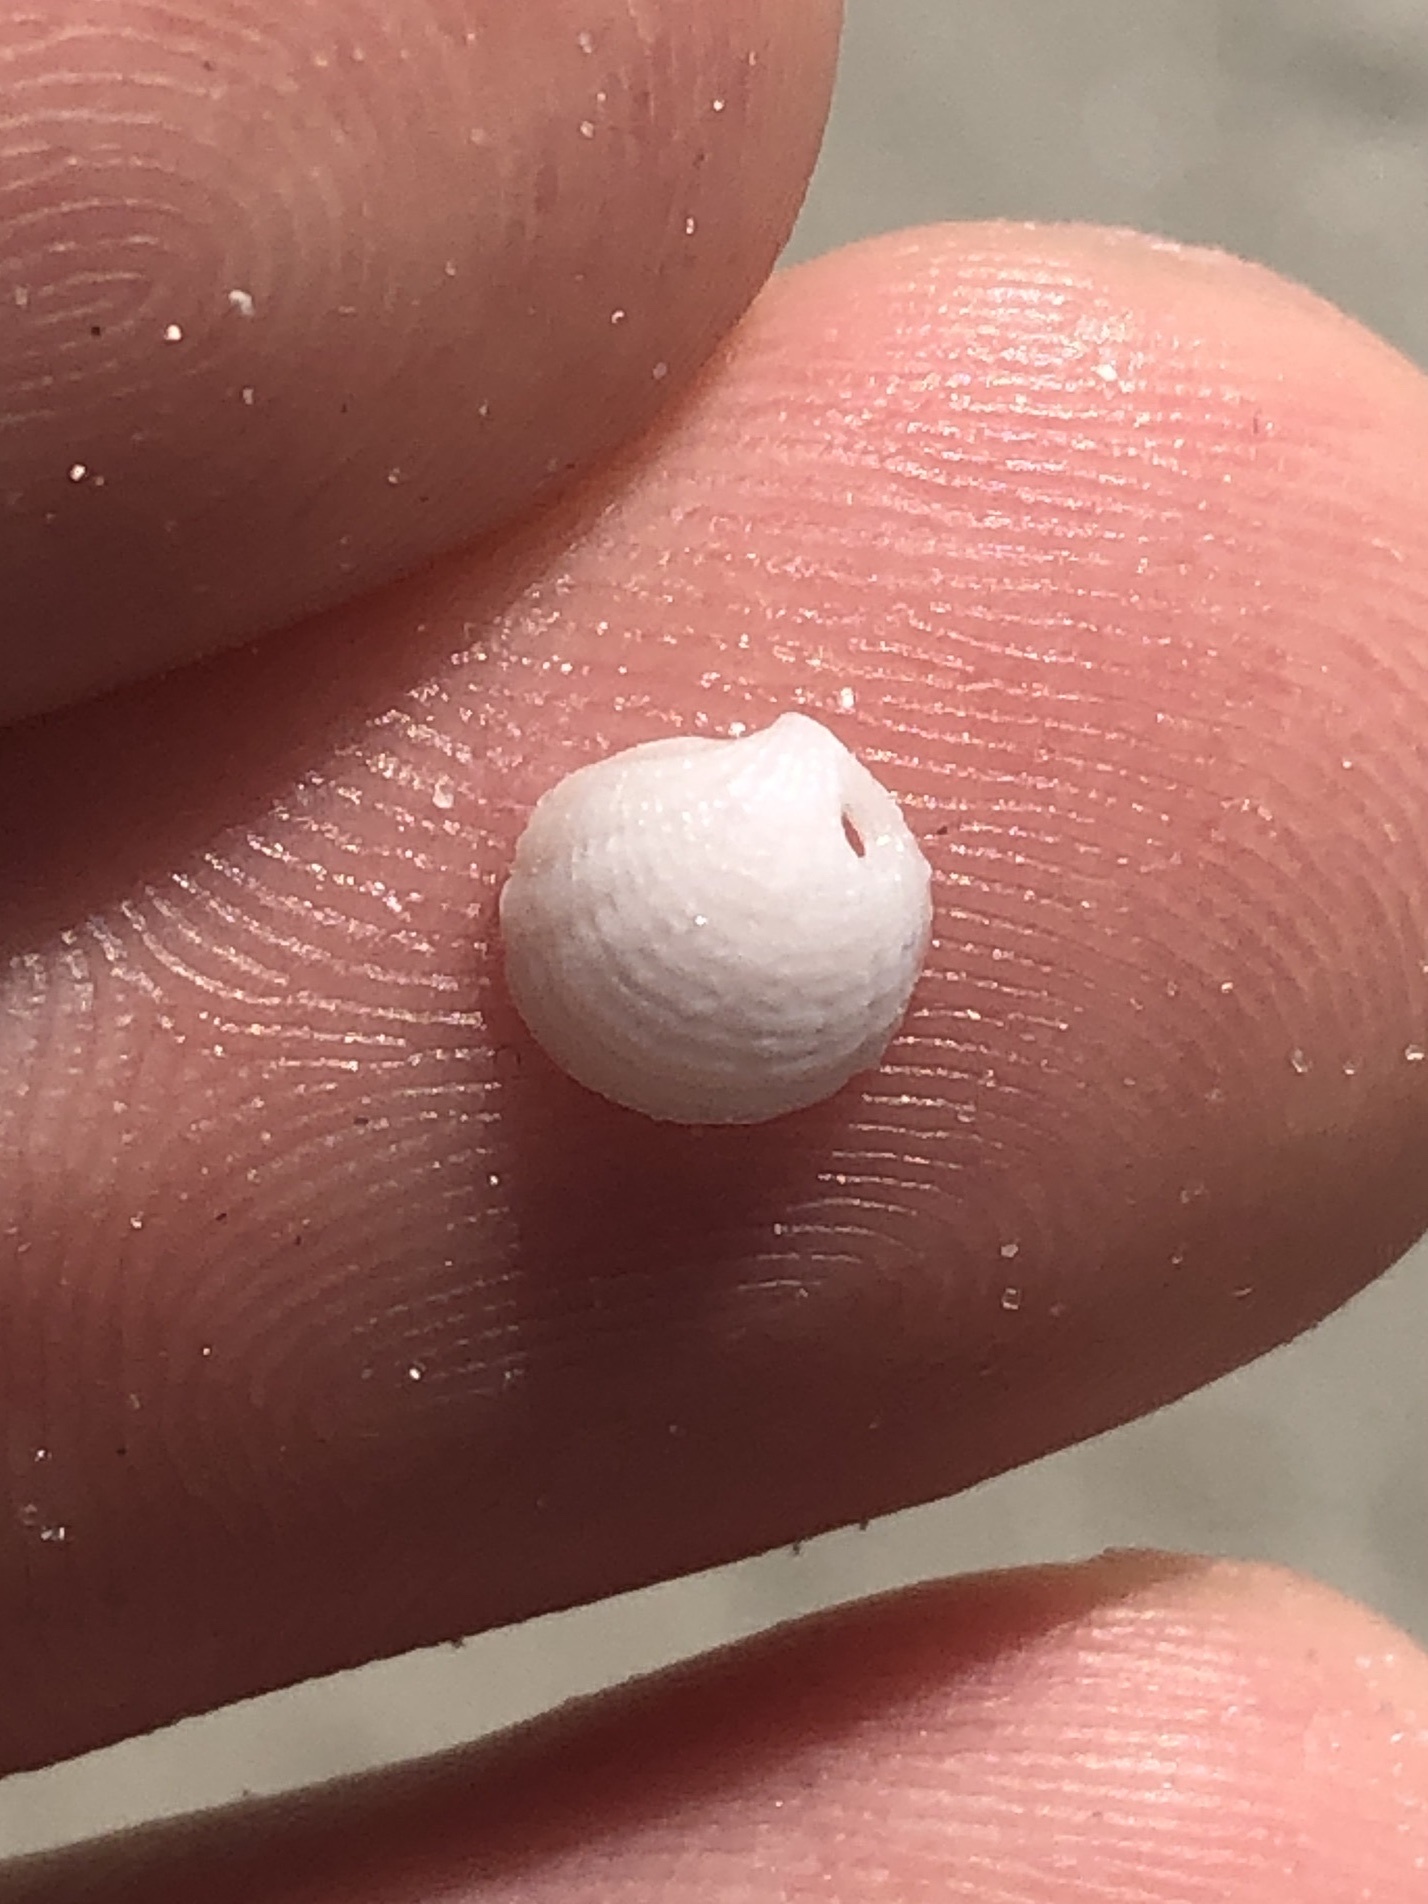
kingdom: Animalia
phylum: Mollusca
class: Bivalvia
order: Lucinida
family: Lucinidae
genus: Radiolucina
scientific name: Radiolucina amianta
